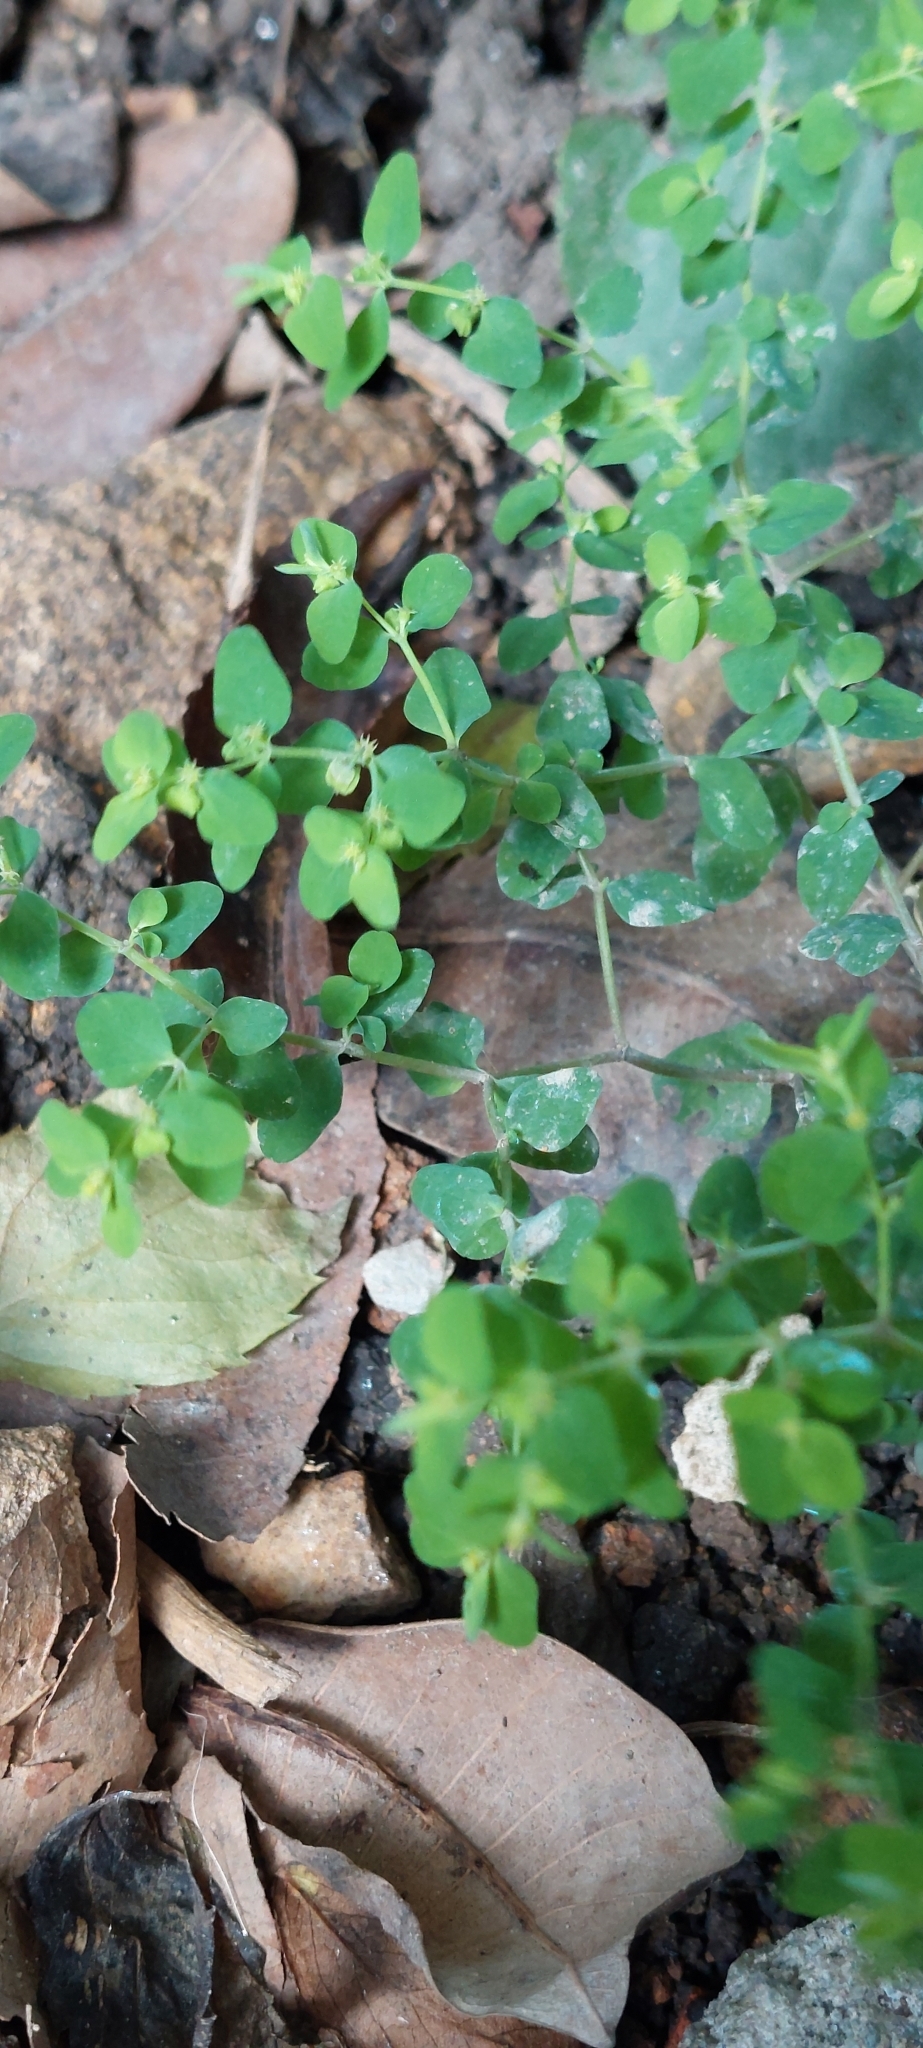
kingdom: Plantae
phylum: Tracheophyta
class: Magnoliopsida
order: Malpighiales
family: Euphorbiaceae
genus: Euphorbia
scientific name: Euphorbia peplus
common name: Petty spurge
